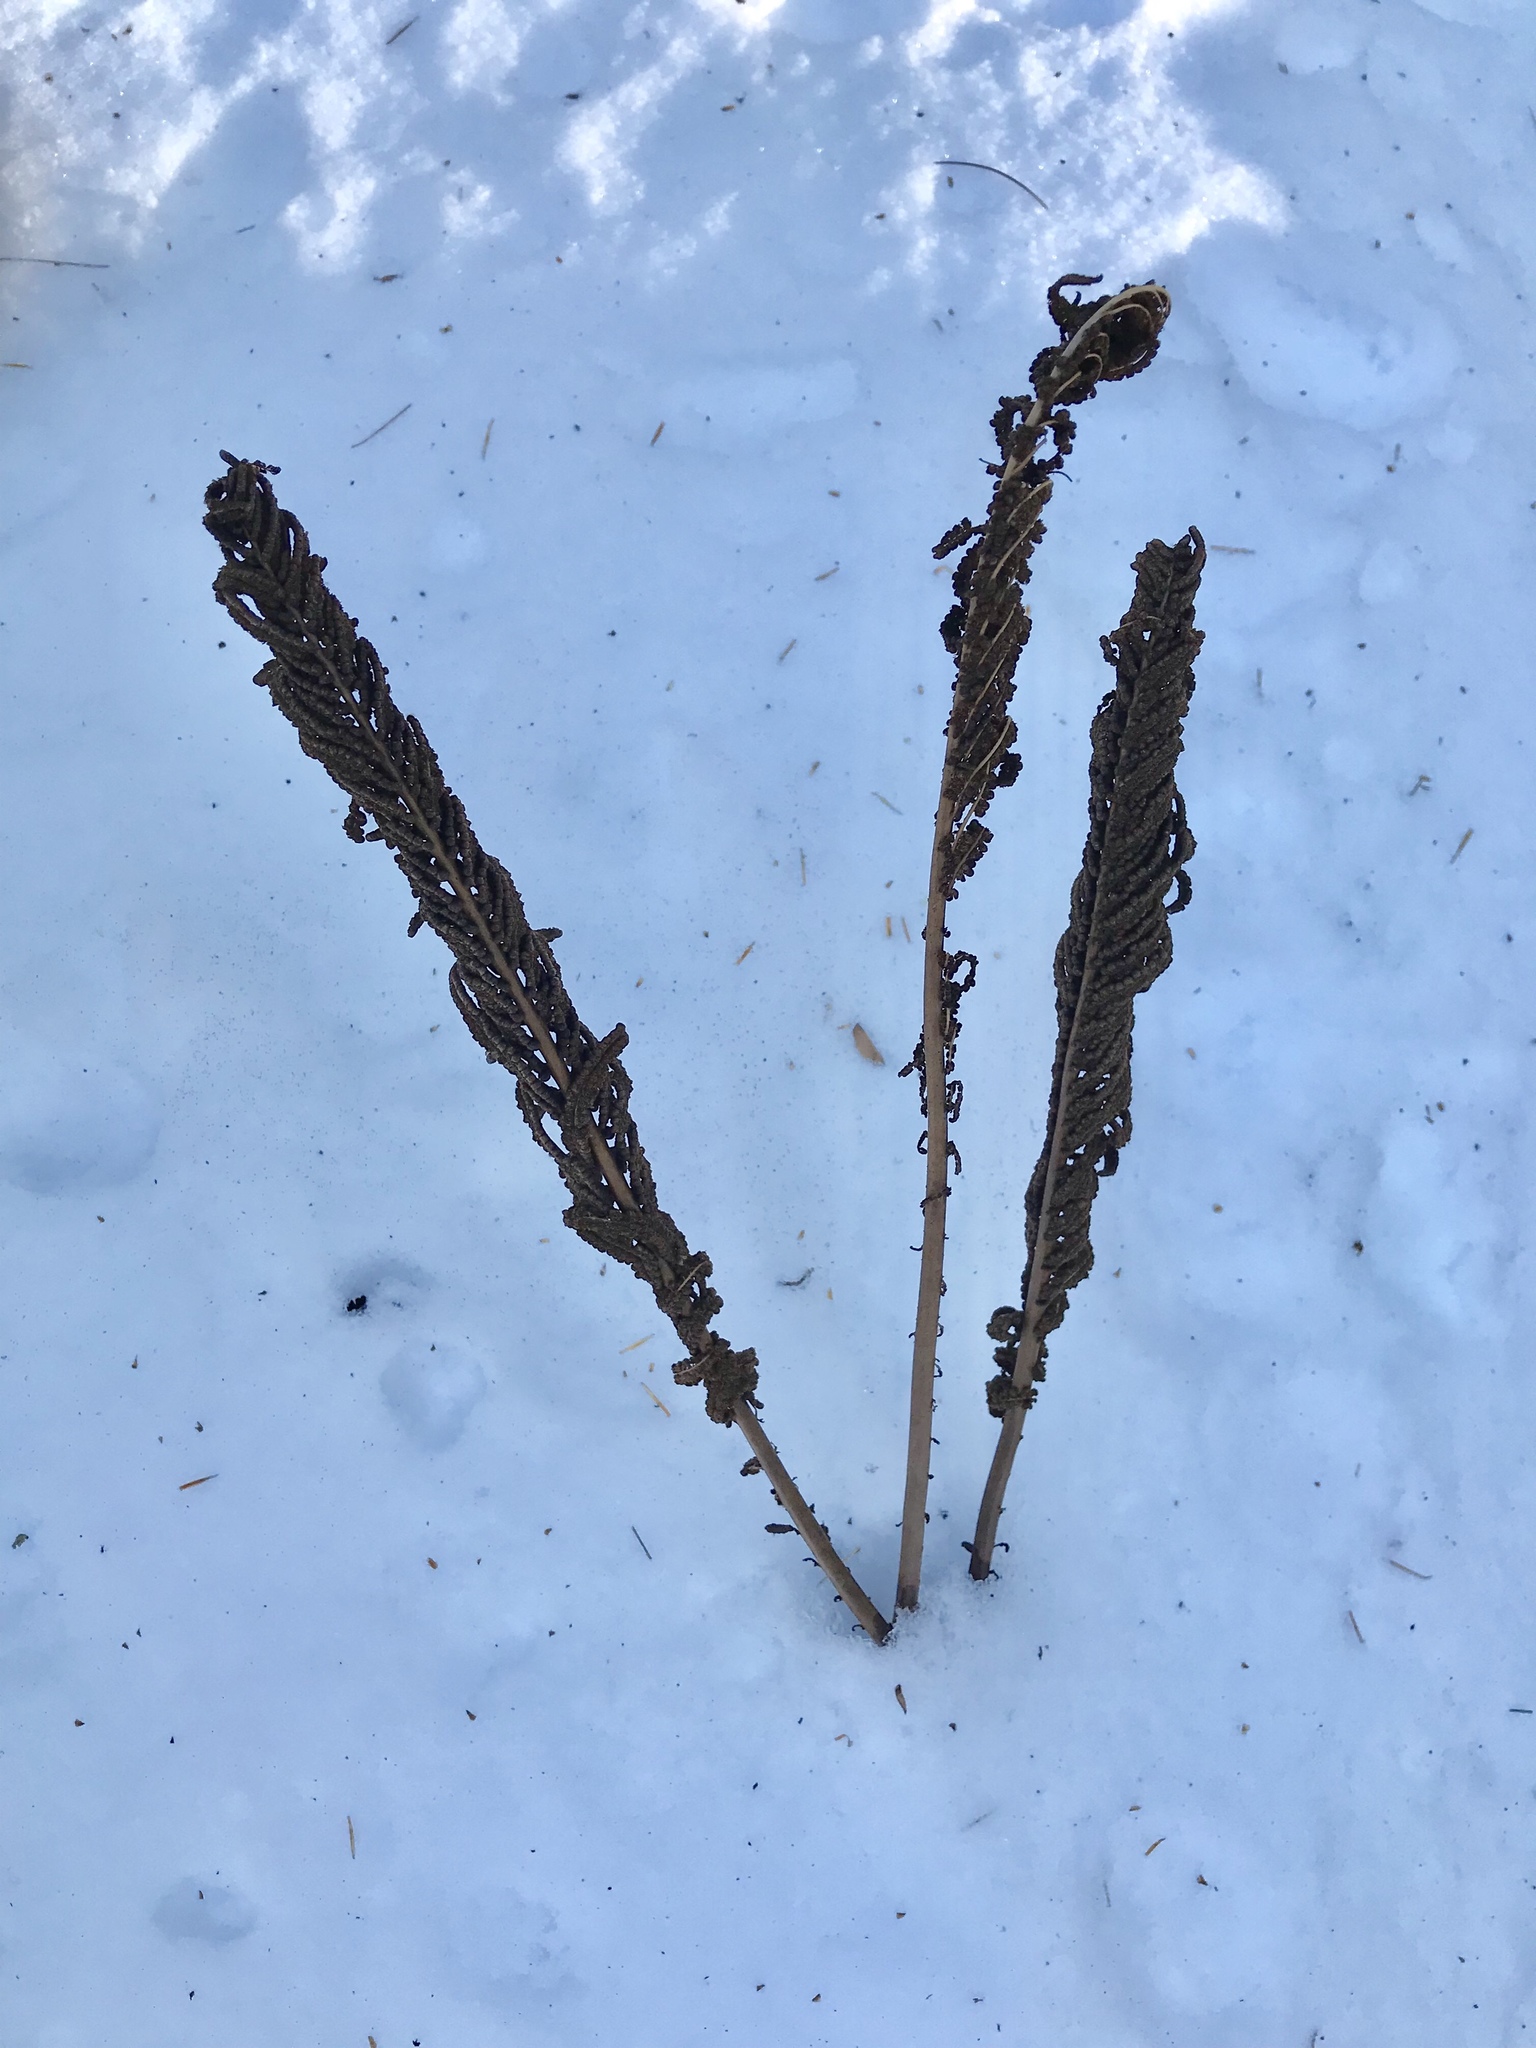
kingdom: Plantae
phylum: Tracheophyta
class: Polypodiopsida
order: Polypodiales
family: Onocleaceae
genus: Matteuccia
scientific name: Matteuccia struthiopteris
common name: Ostrich fern
